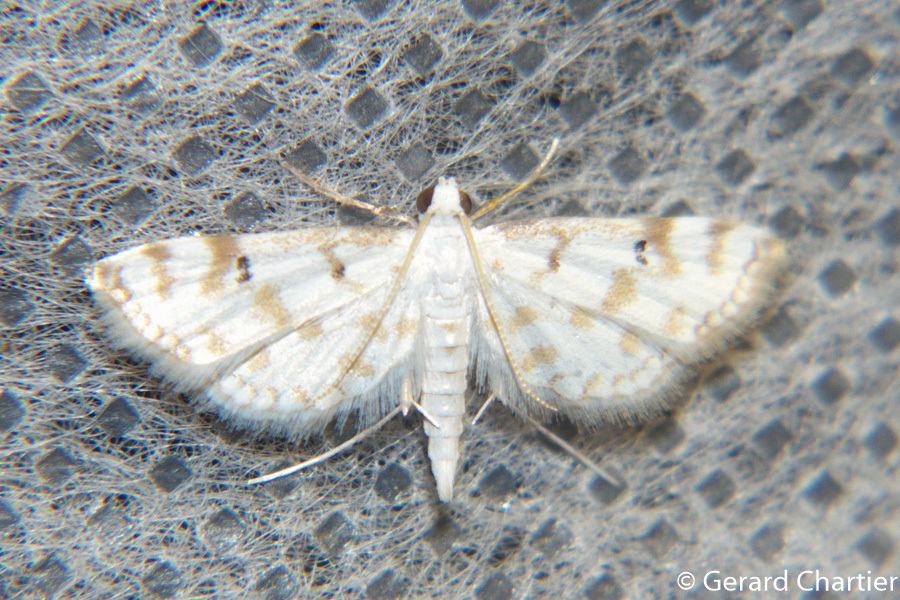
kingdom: Animalia
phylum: Arthropoda
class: Insecta
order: Lepidoptera
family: Crambidae
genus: Parapoynx
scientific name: Parapoynx stagnalis
